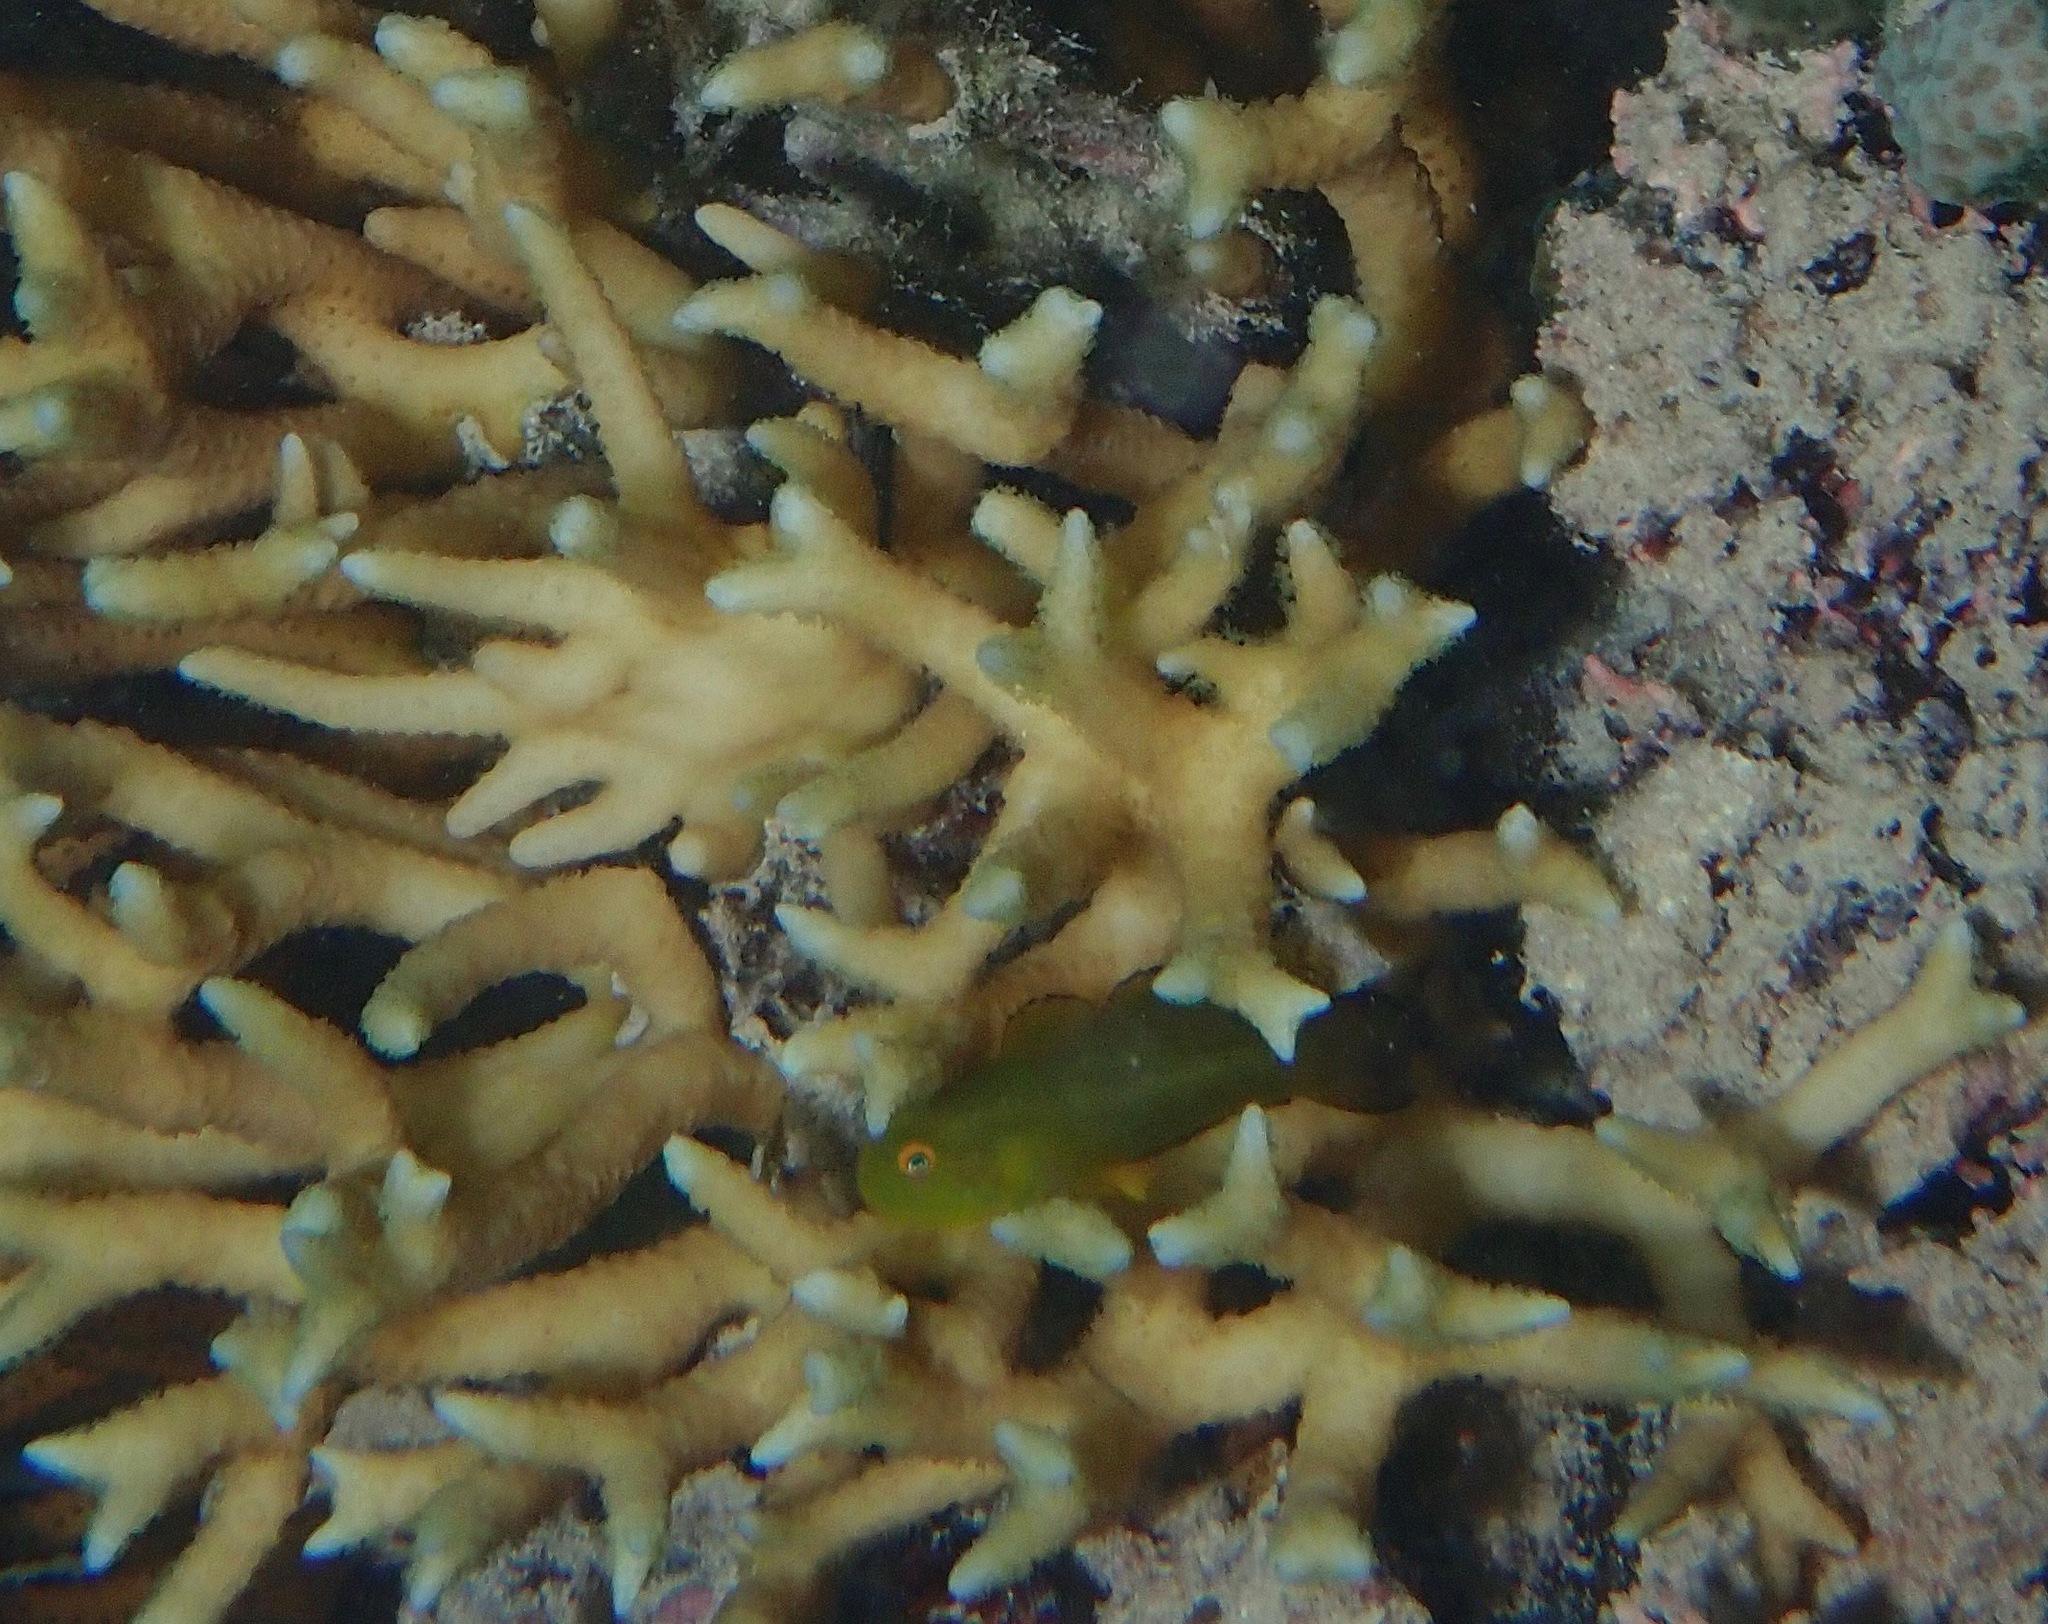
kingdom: Animalia
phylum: Chordata
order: Perciformes
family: Gobiidae
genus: Paragobiodon
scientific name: Paragobiodon xanthosoma
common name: Yellowskin goby
